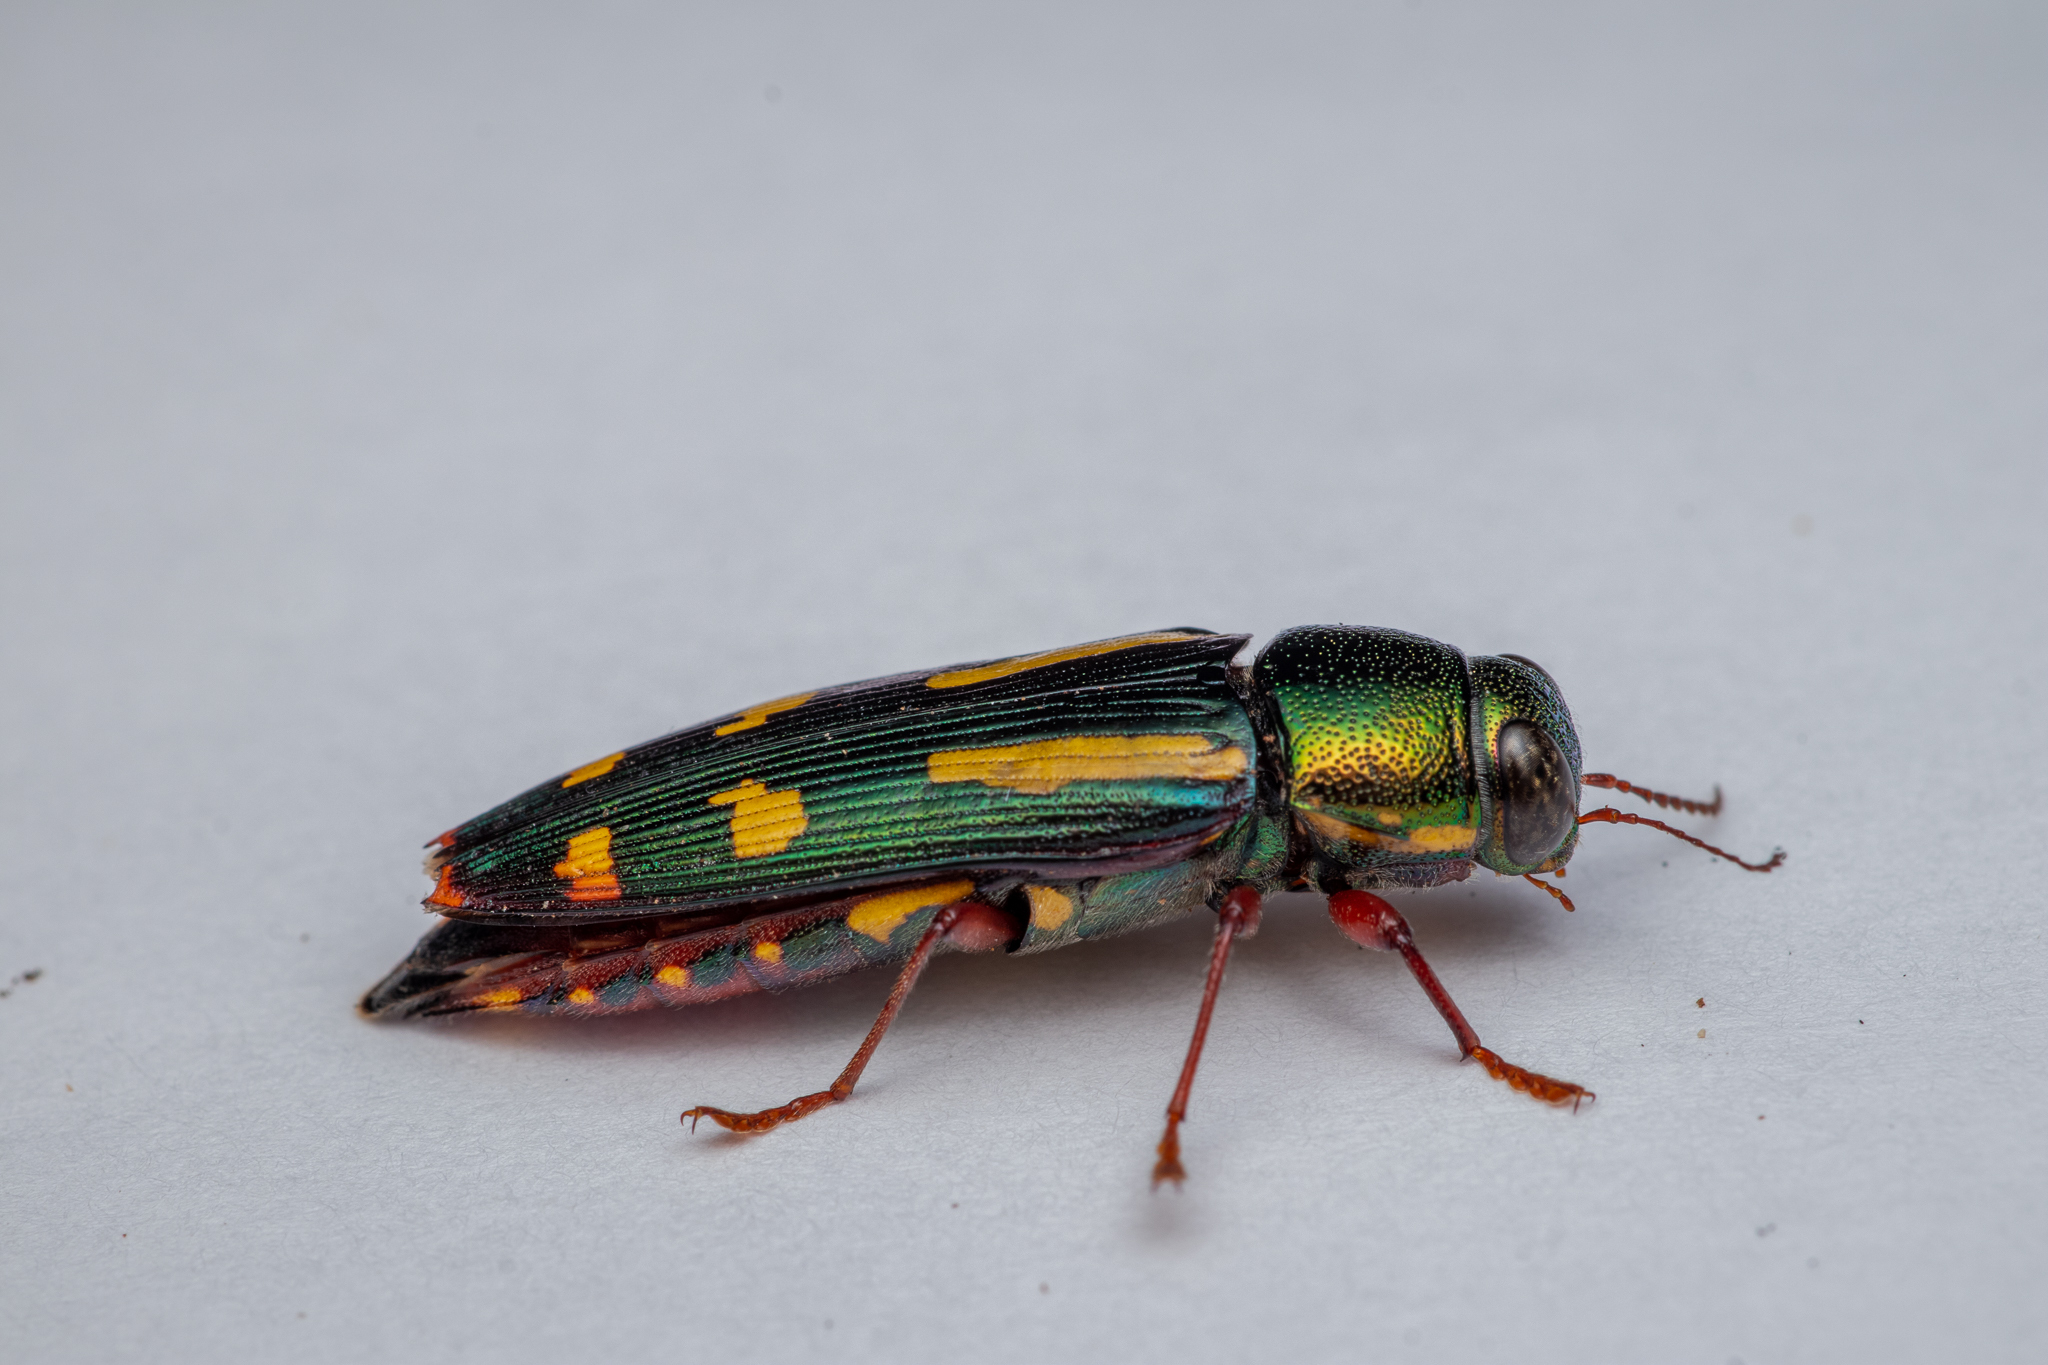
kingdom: Animalia
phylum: Arthropoda
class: Insecta
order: Coleoptera
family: Buprestidae
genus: Buprestis
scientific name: Buprestis rufipes
